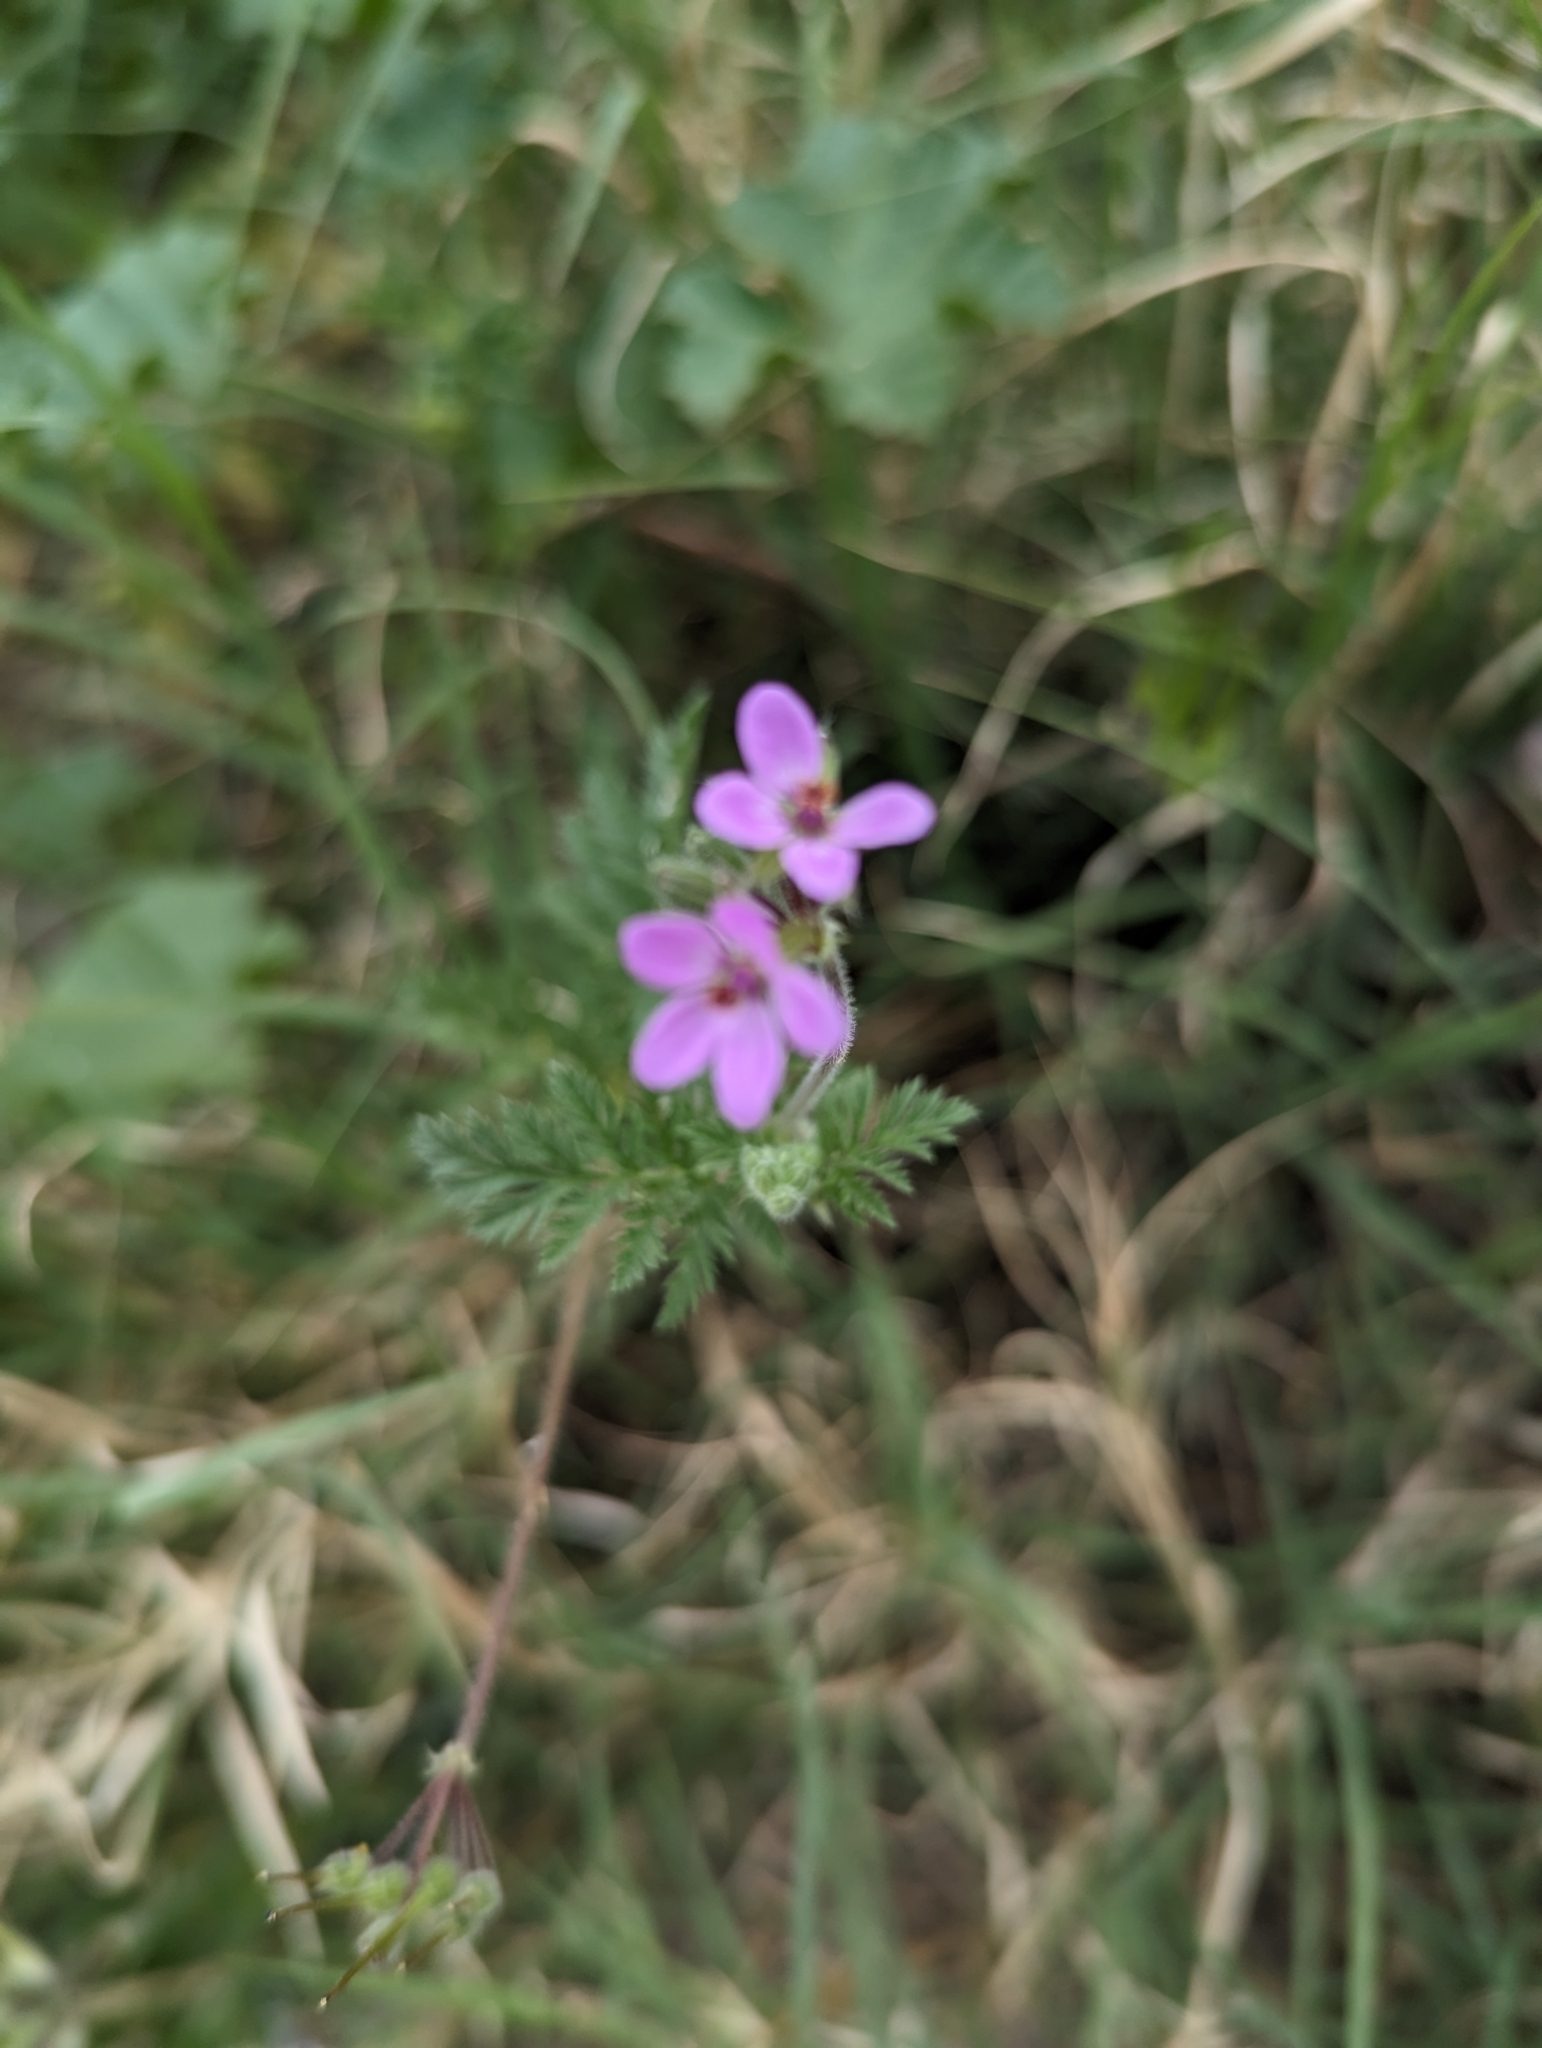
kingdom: Plantae
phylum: Tracheophyta
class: Magnoliopsida
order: Geraniales
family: Geraniaceae
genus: Erodium
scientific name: Erodium cicutarium
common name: Common stork's-bill
